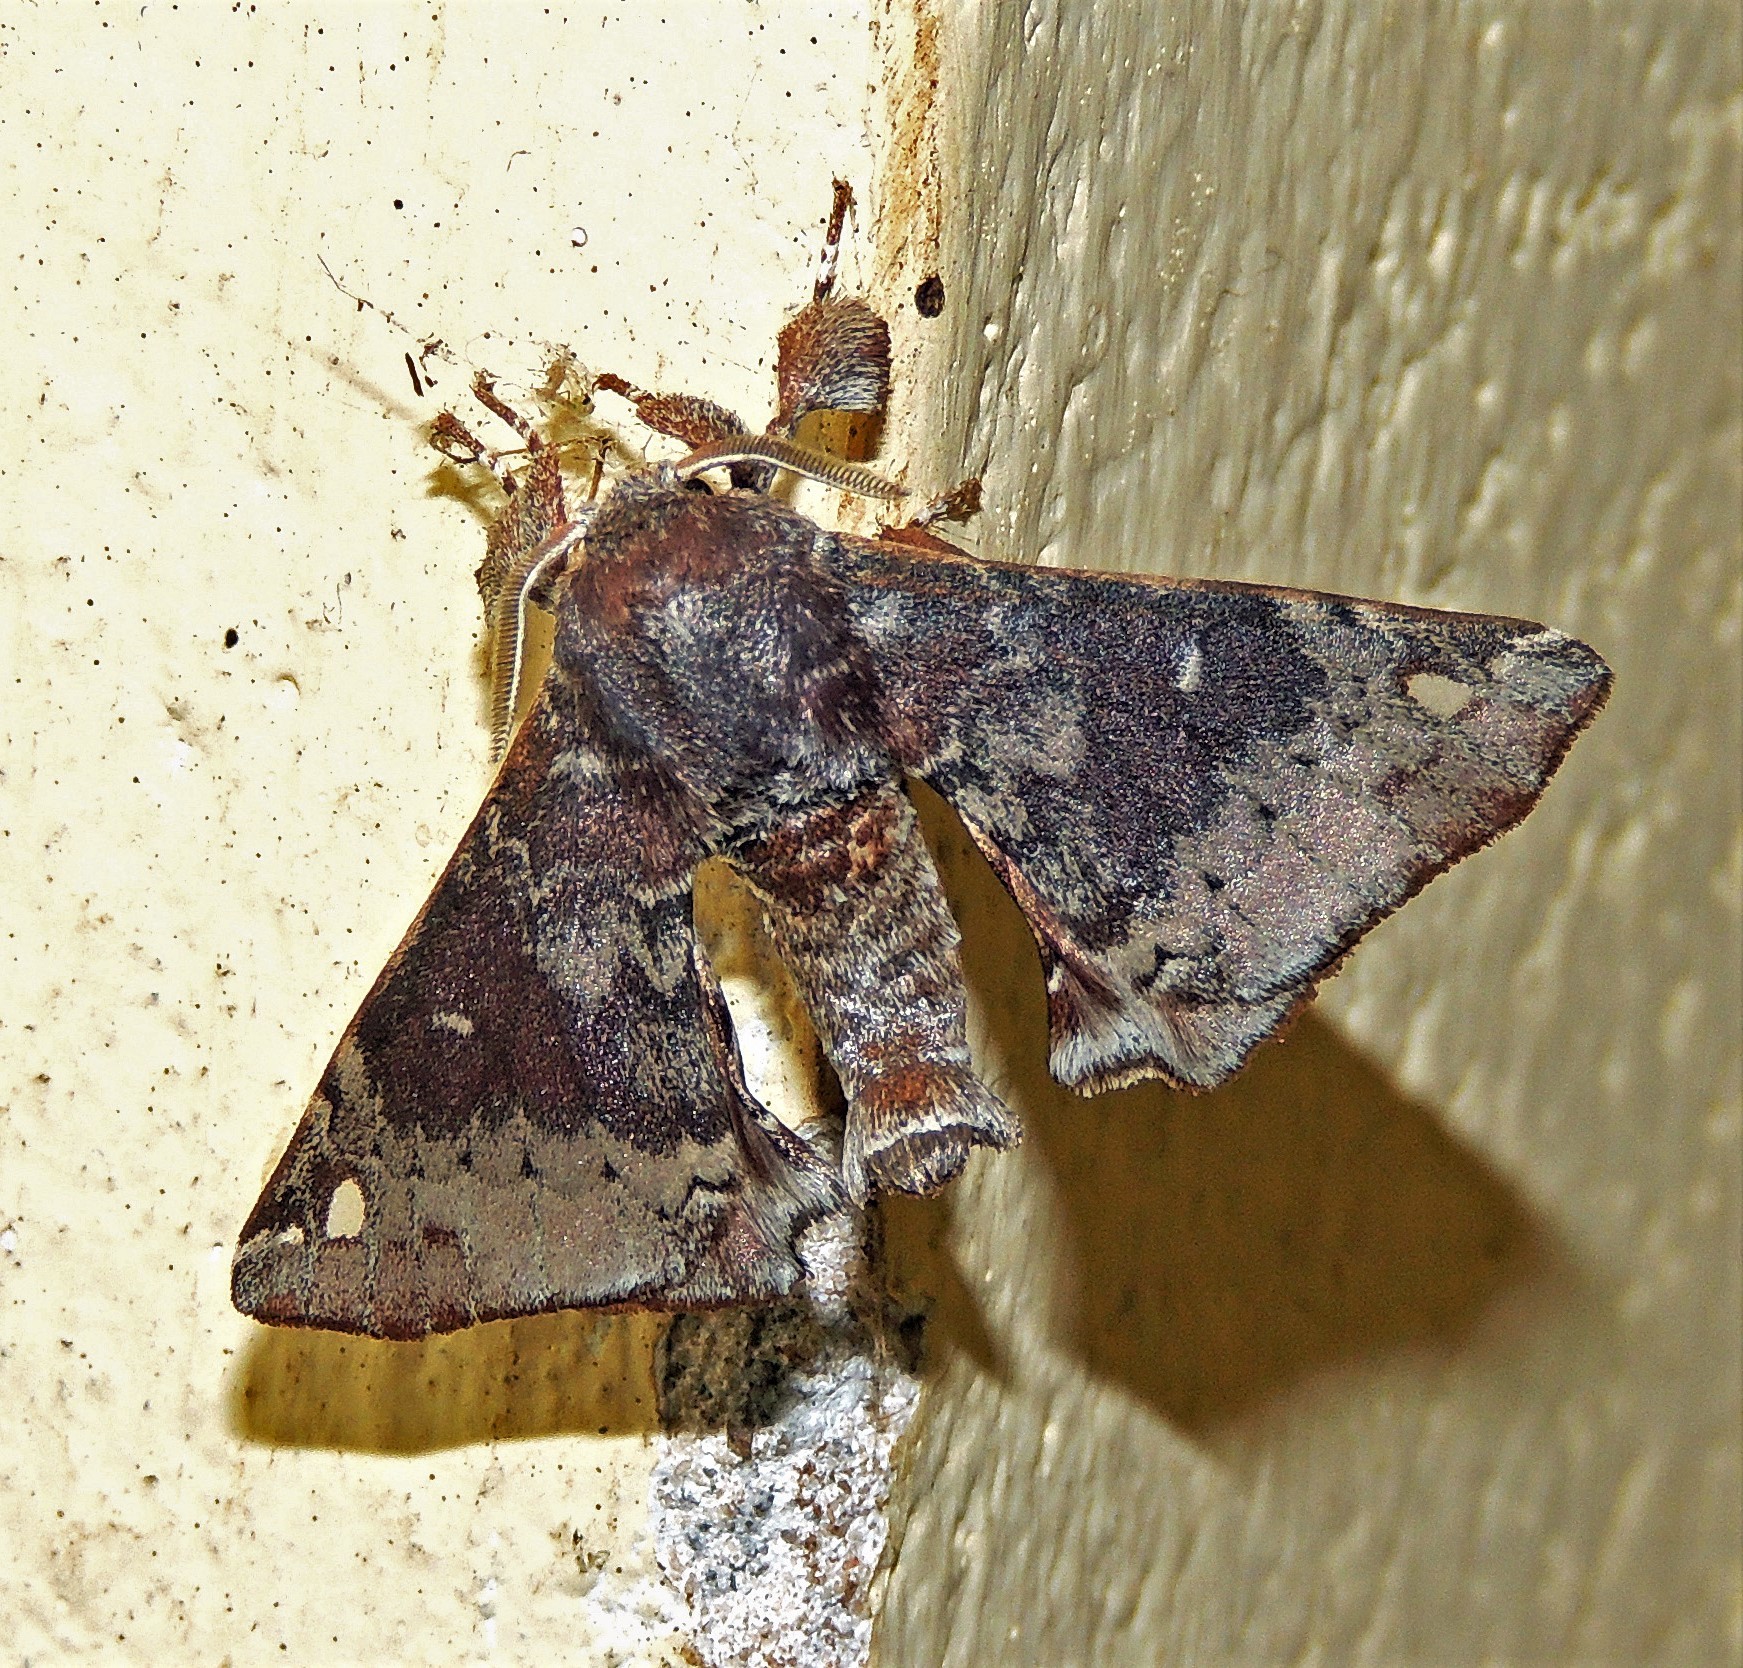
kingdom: Animalia
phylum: Arthropoda
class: Insecta
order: Lepidoptera
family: Apatelodidae
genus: Hygrochroa
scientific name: Hygrochroa Apatelodes ardeola
